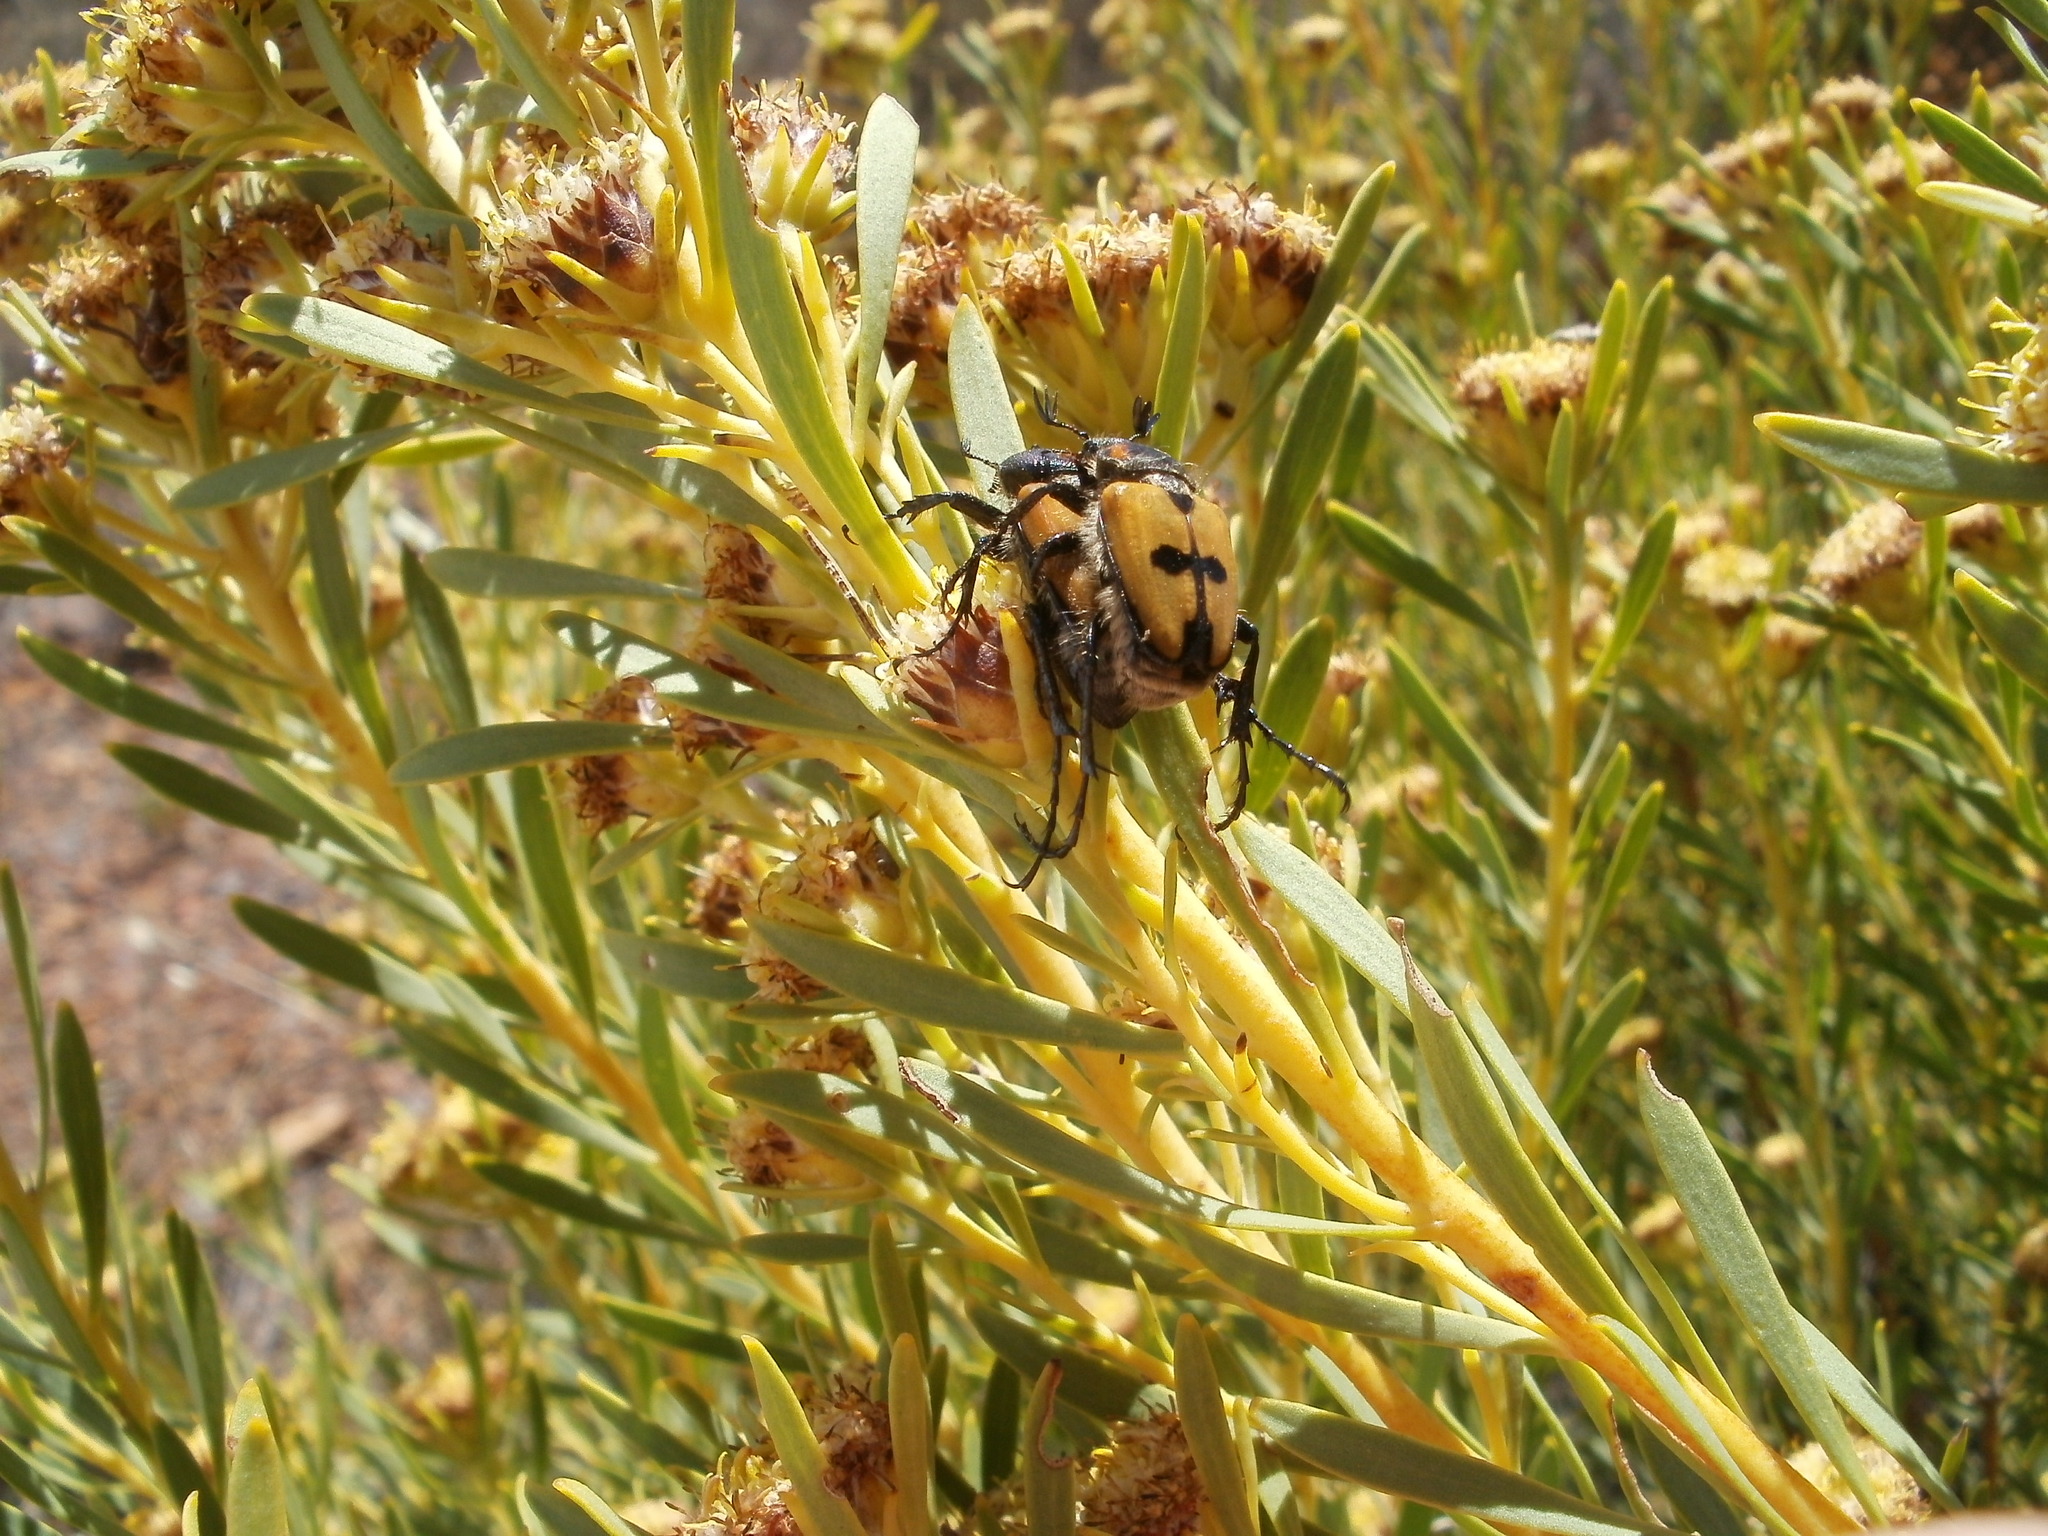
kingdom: Animalia
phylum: Arthropoda
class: Insecta
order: Coleoptera
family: Scarabaeidae
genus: Campulipus
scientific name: Campulipus limbatus
